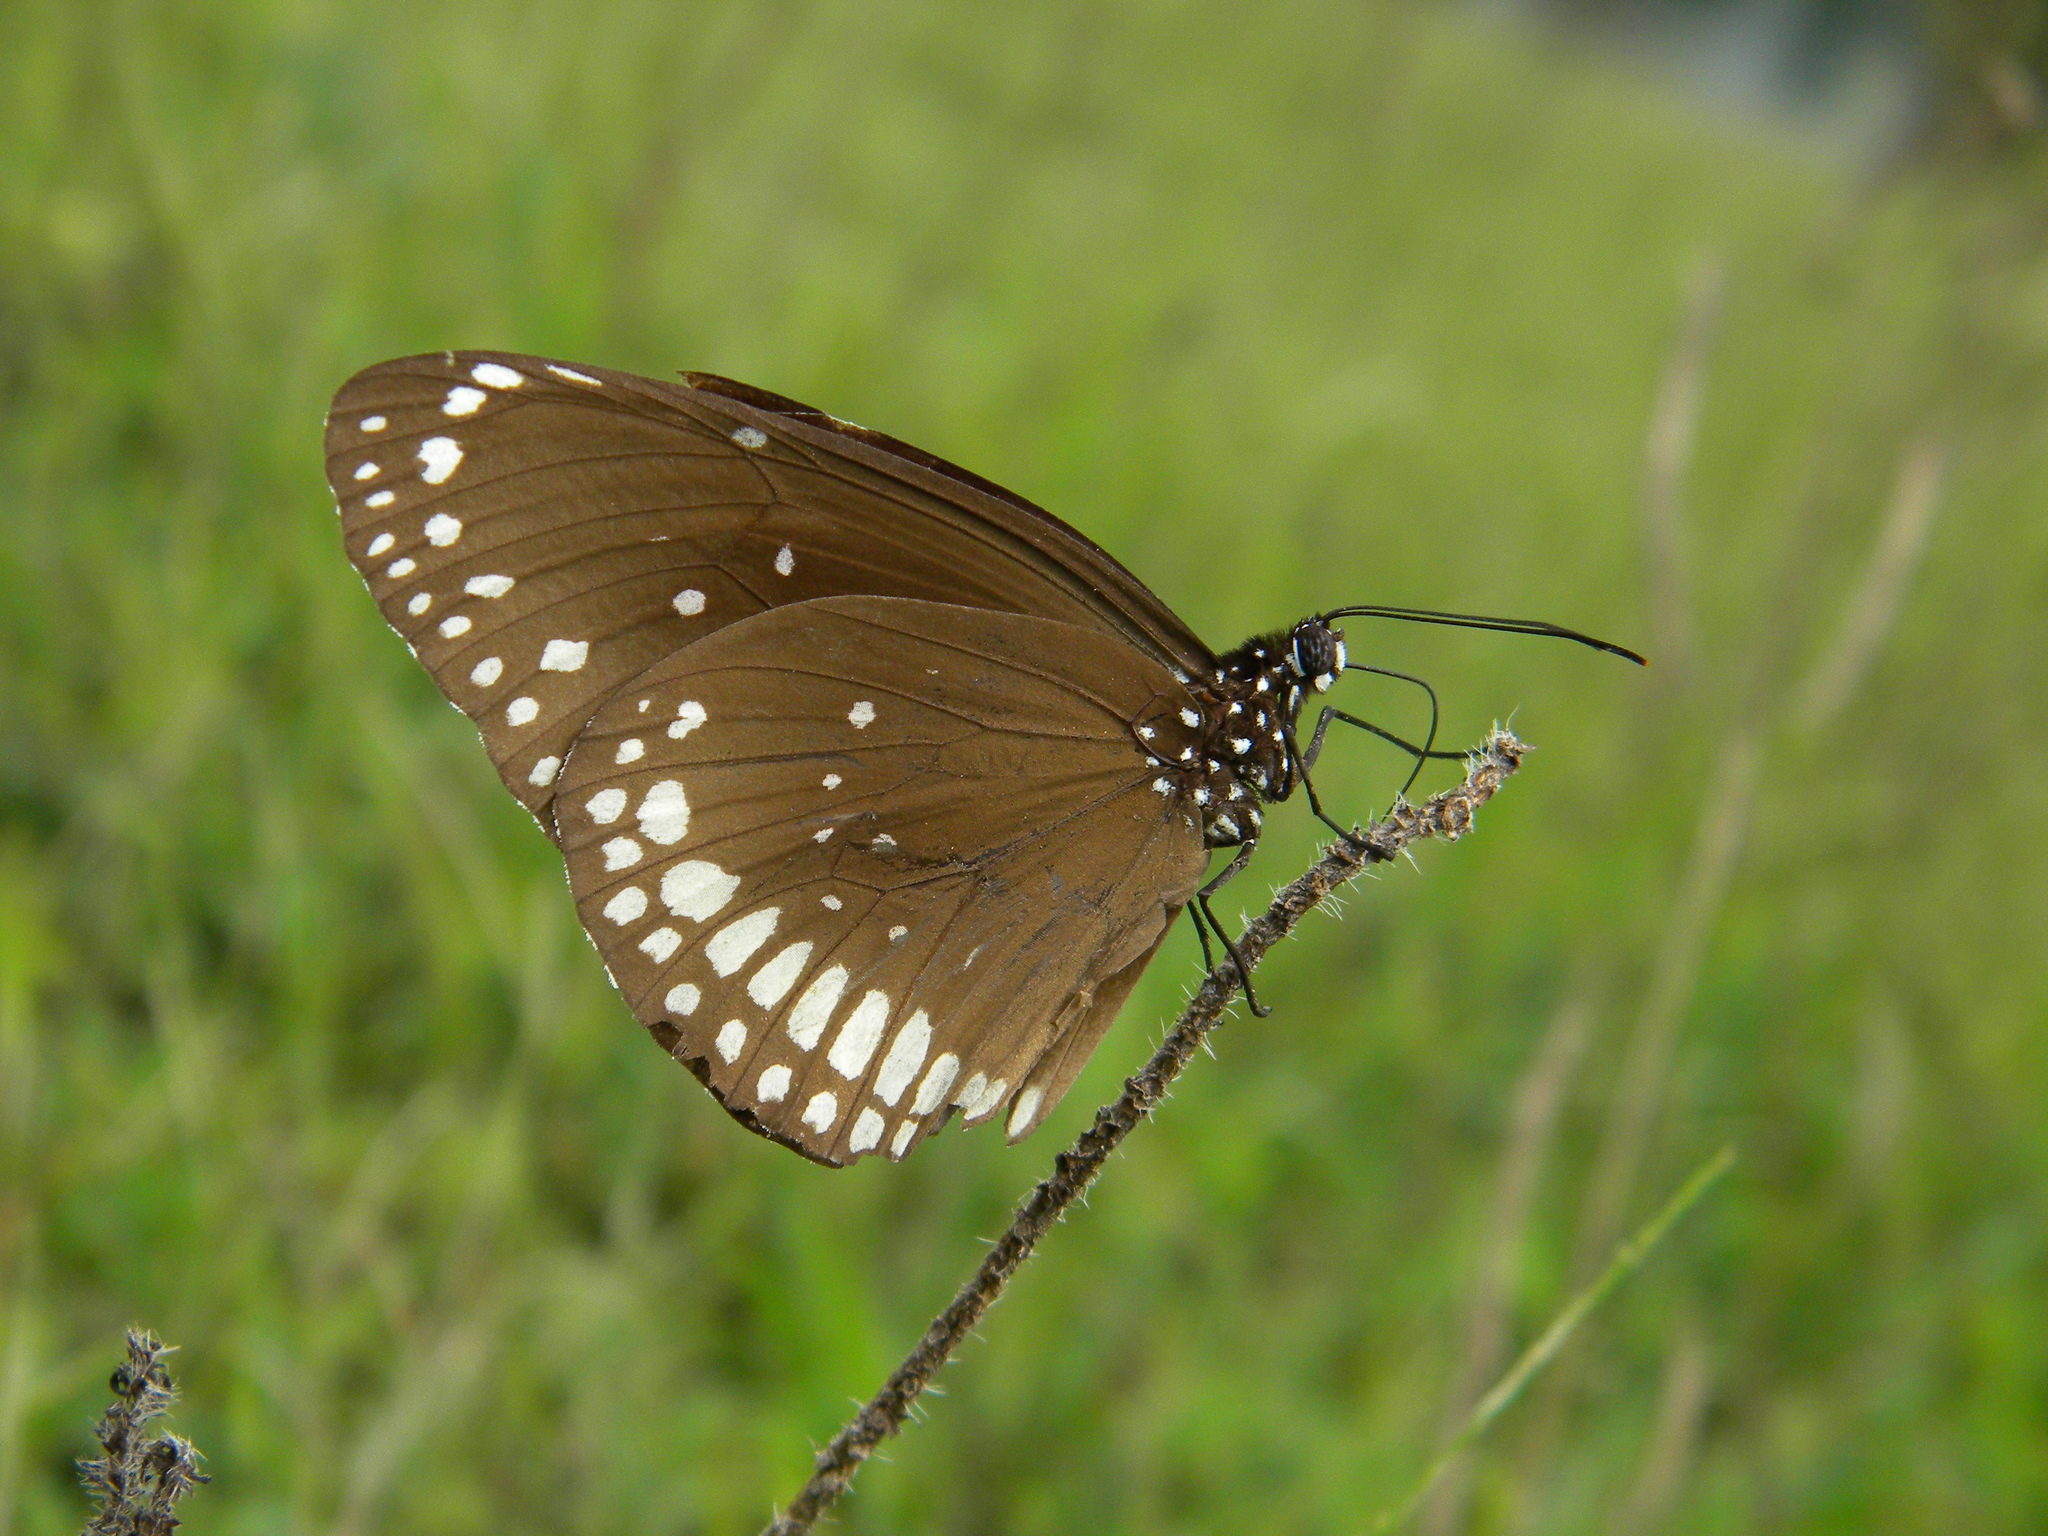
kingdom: Animalia
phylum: Arthropoda
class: Insecta
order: Lepidoptera
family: Nymphalidae
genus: Euploea
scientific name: Euploea core
